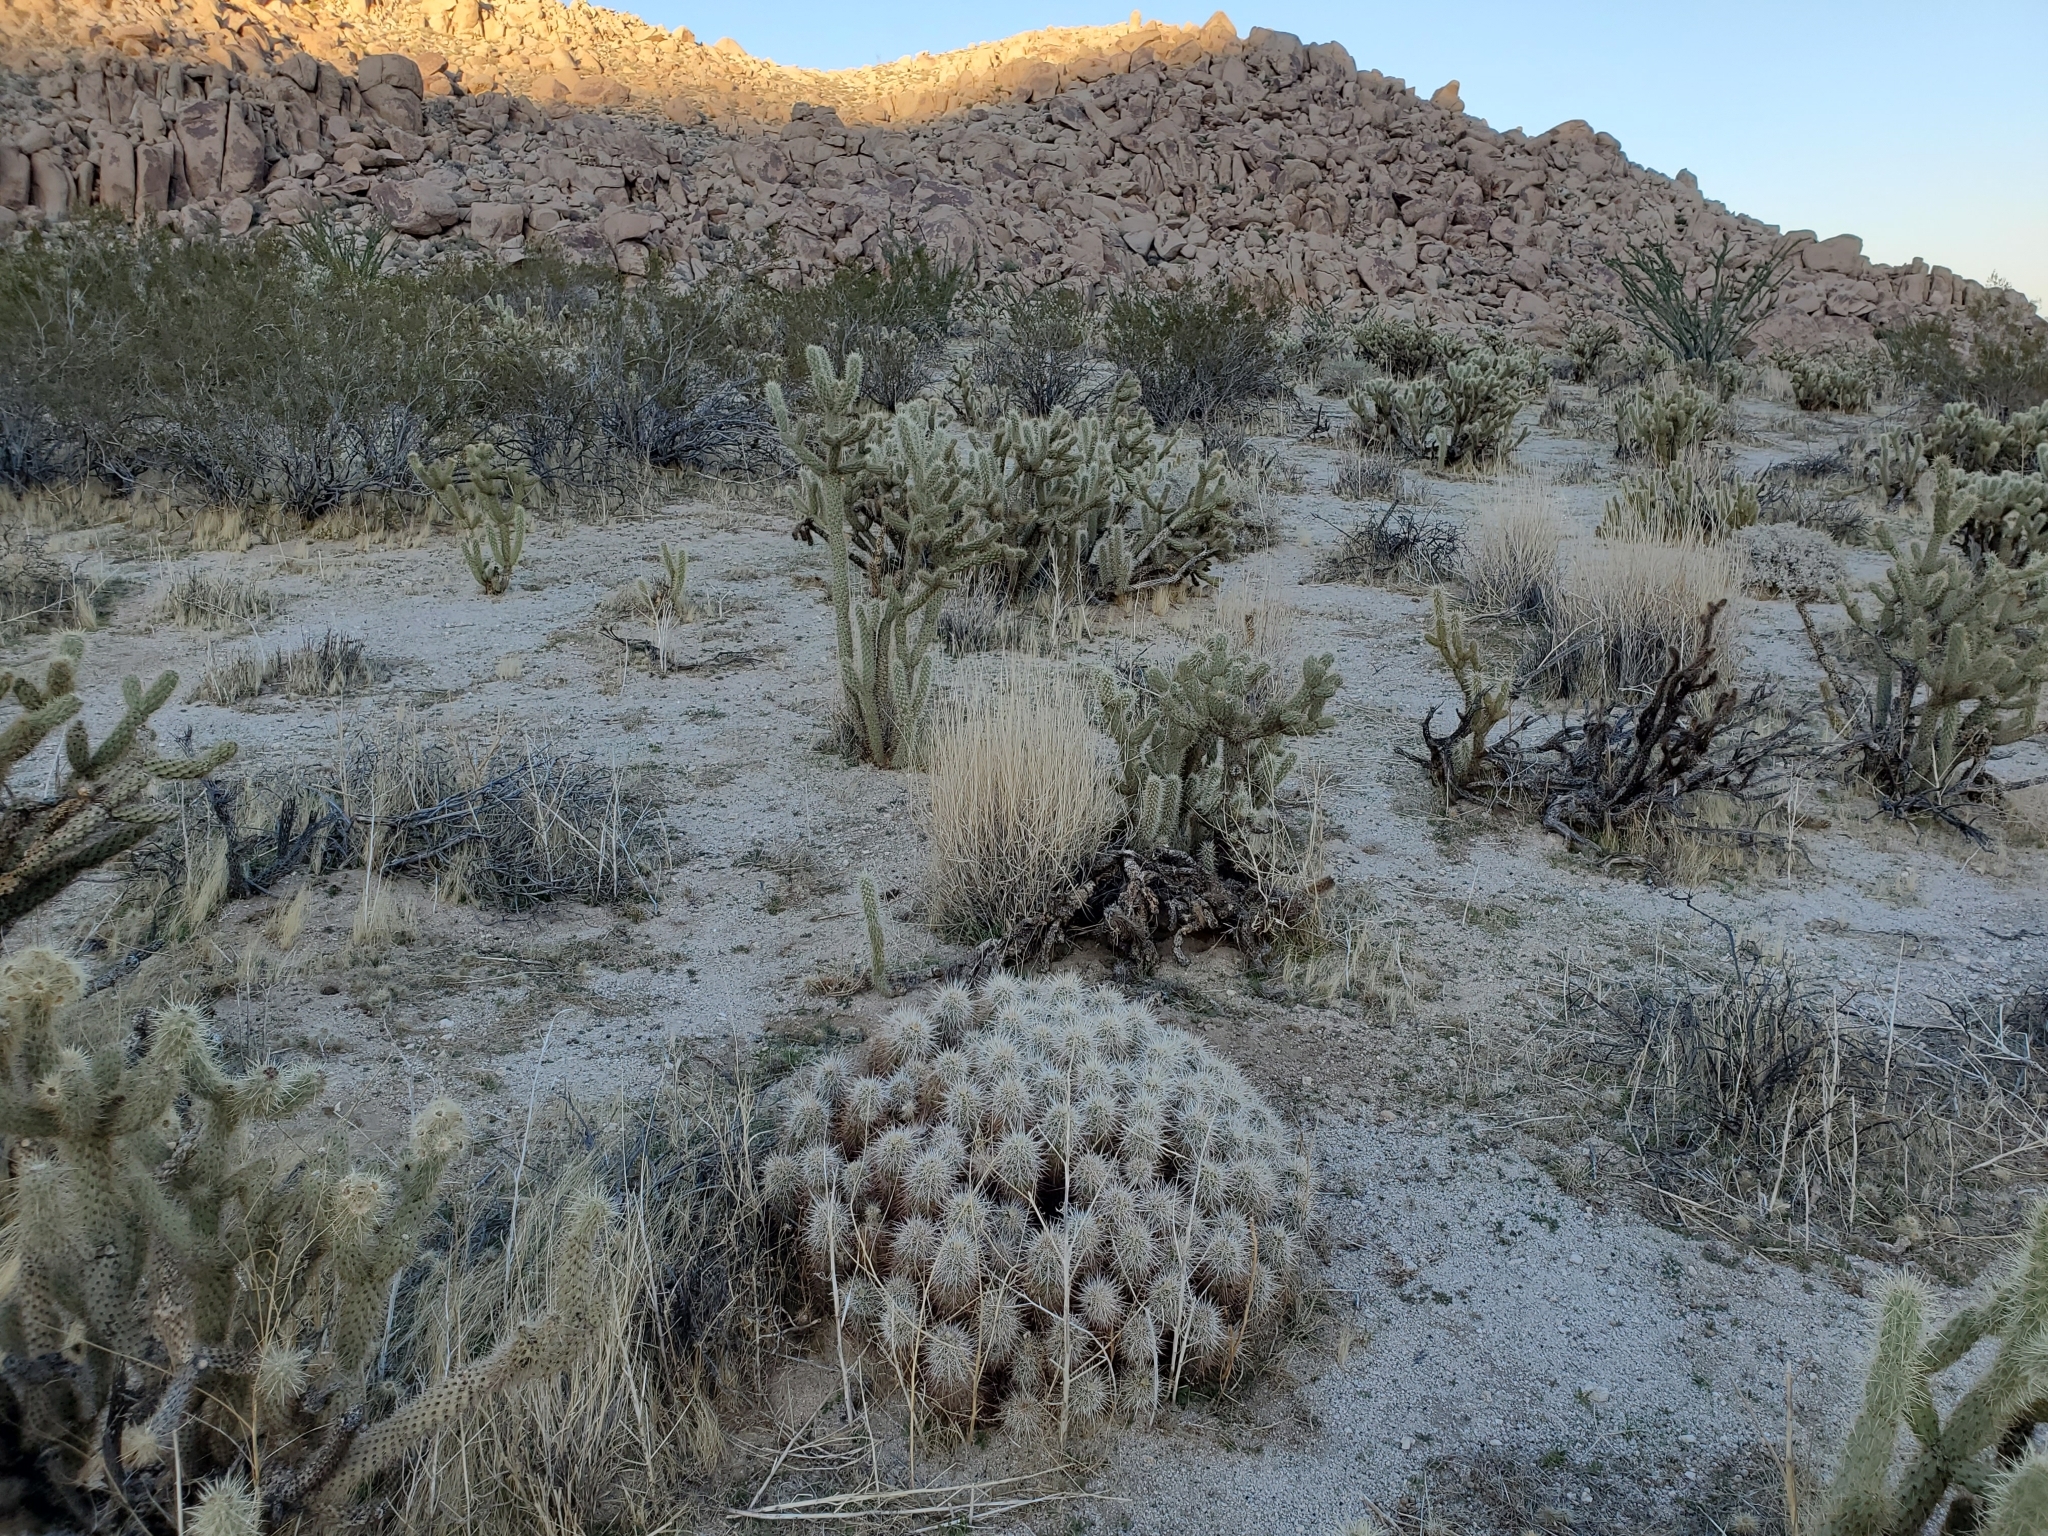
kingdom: Plantae
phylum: Tracheophyta
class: Magnoliopsida
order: Caryophyllales
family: Cactaceae
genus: Echinocereus
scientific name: Echinocereus engelmannii
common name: Engelmann's hedgehog cactus
